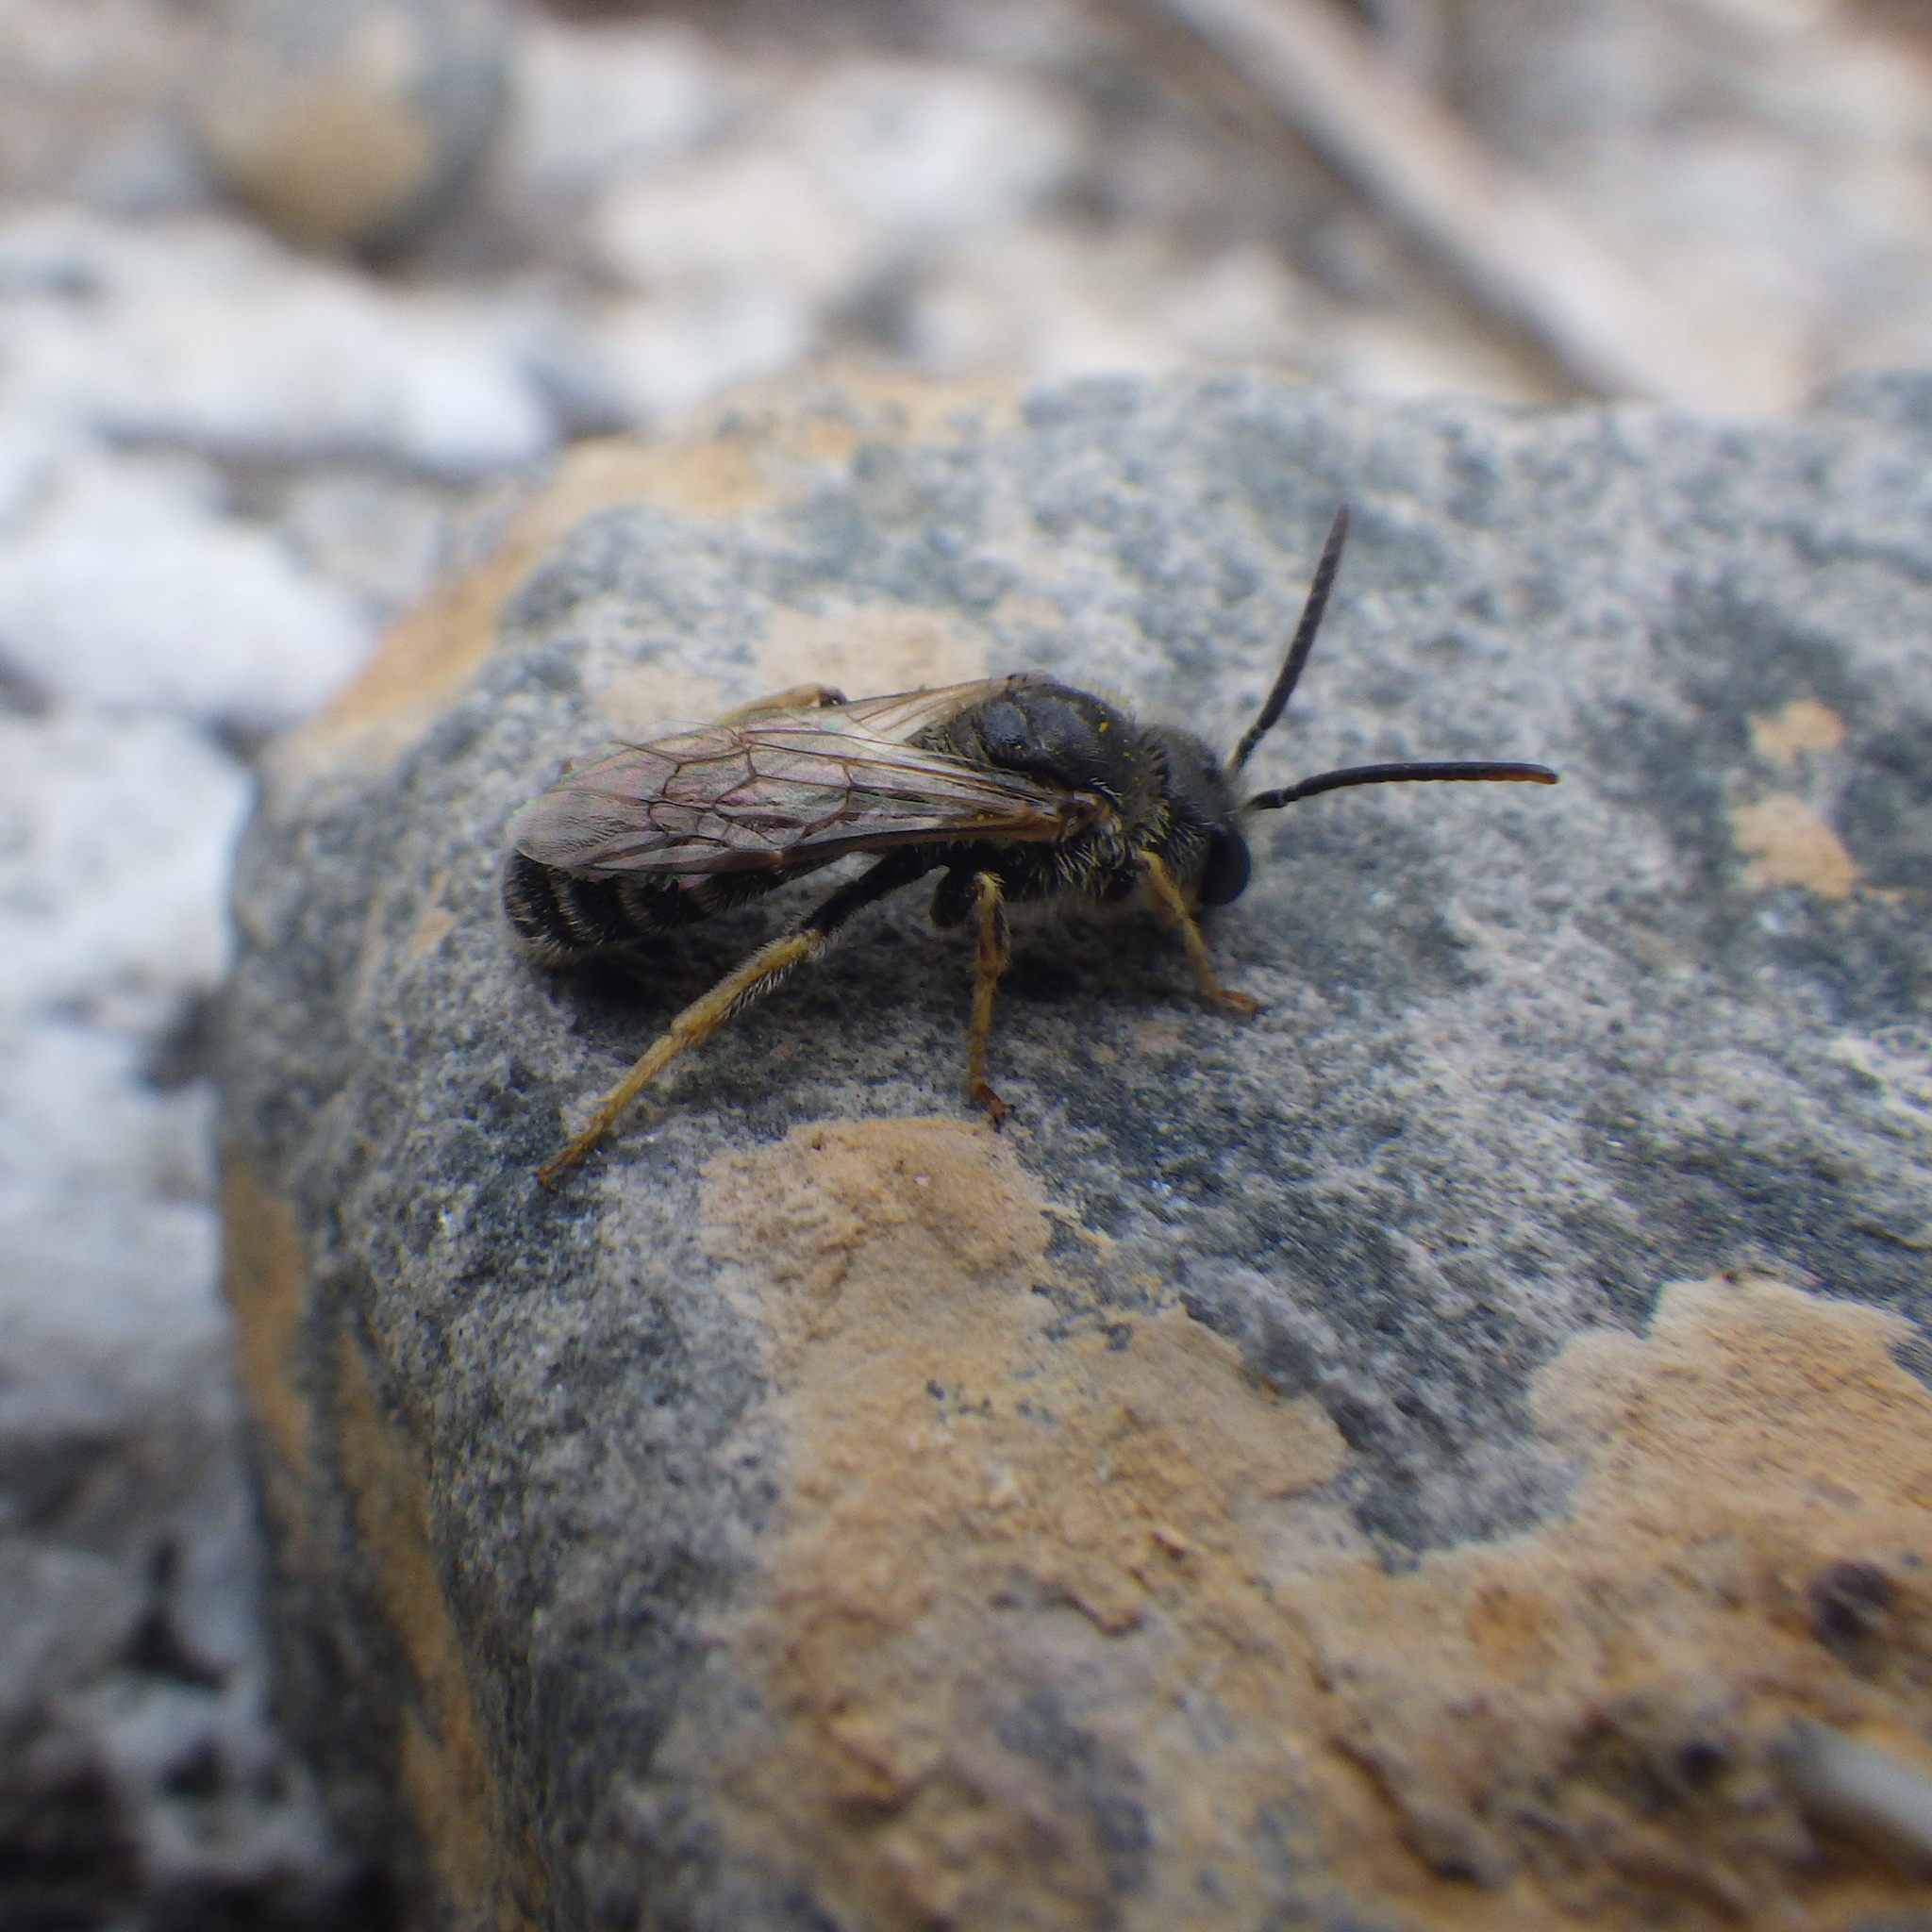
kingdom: Animalia
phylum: Arthropoda
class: Insecta
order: Hymenoptera
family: Halictidae
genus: Halictus
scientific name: Halictus ligatus
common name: Ligated furrow bee
